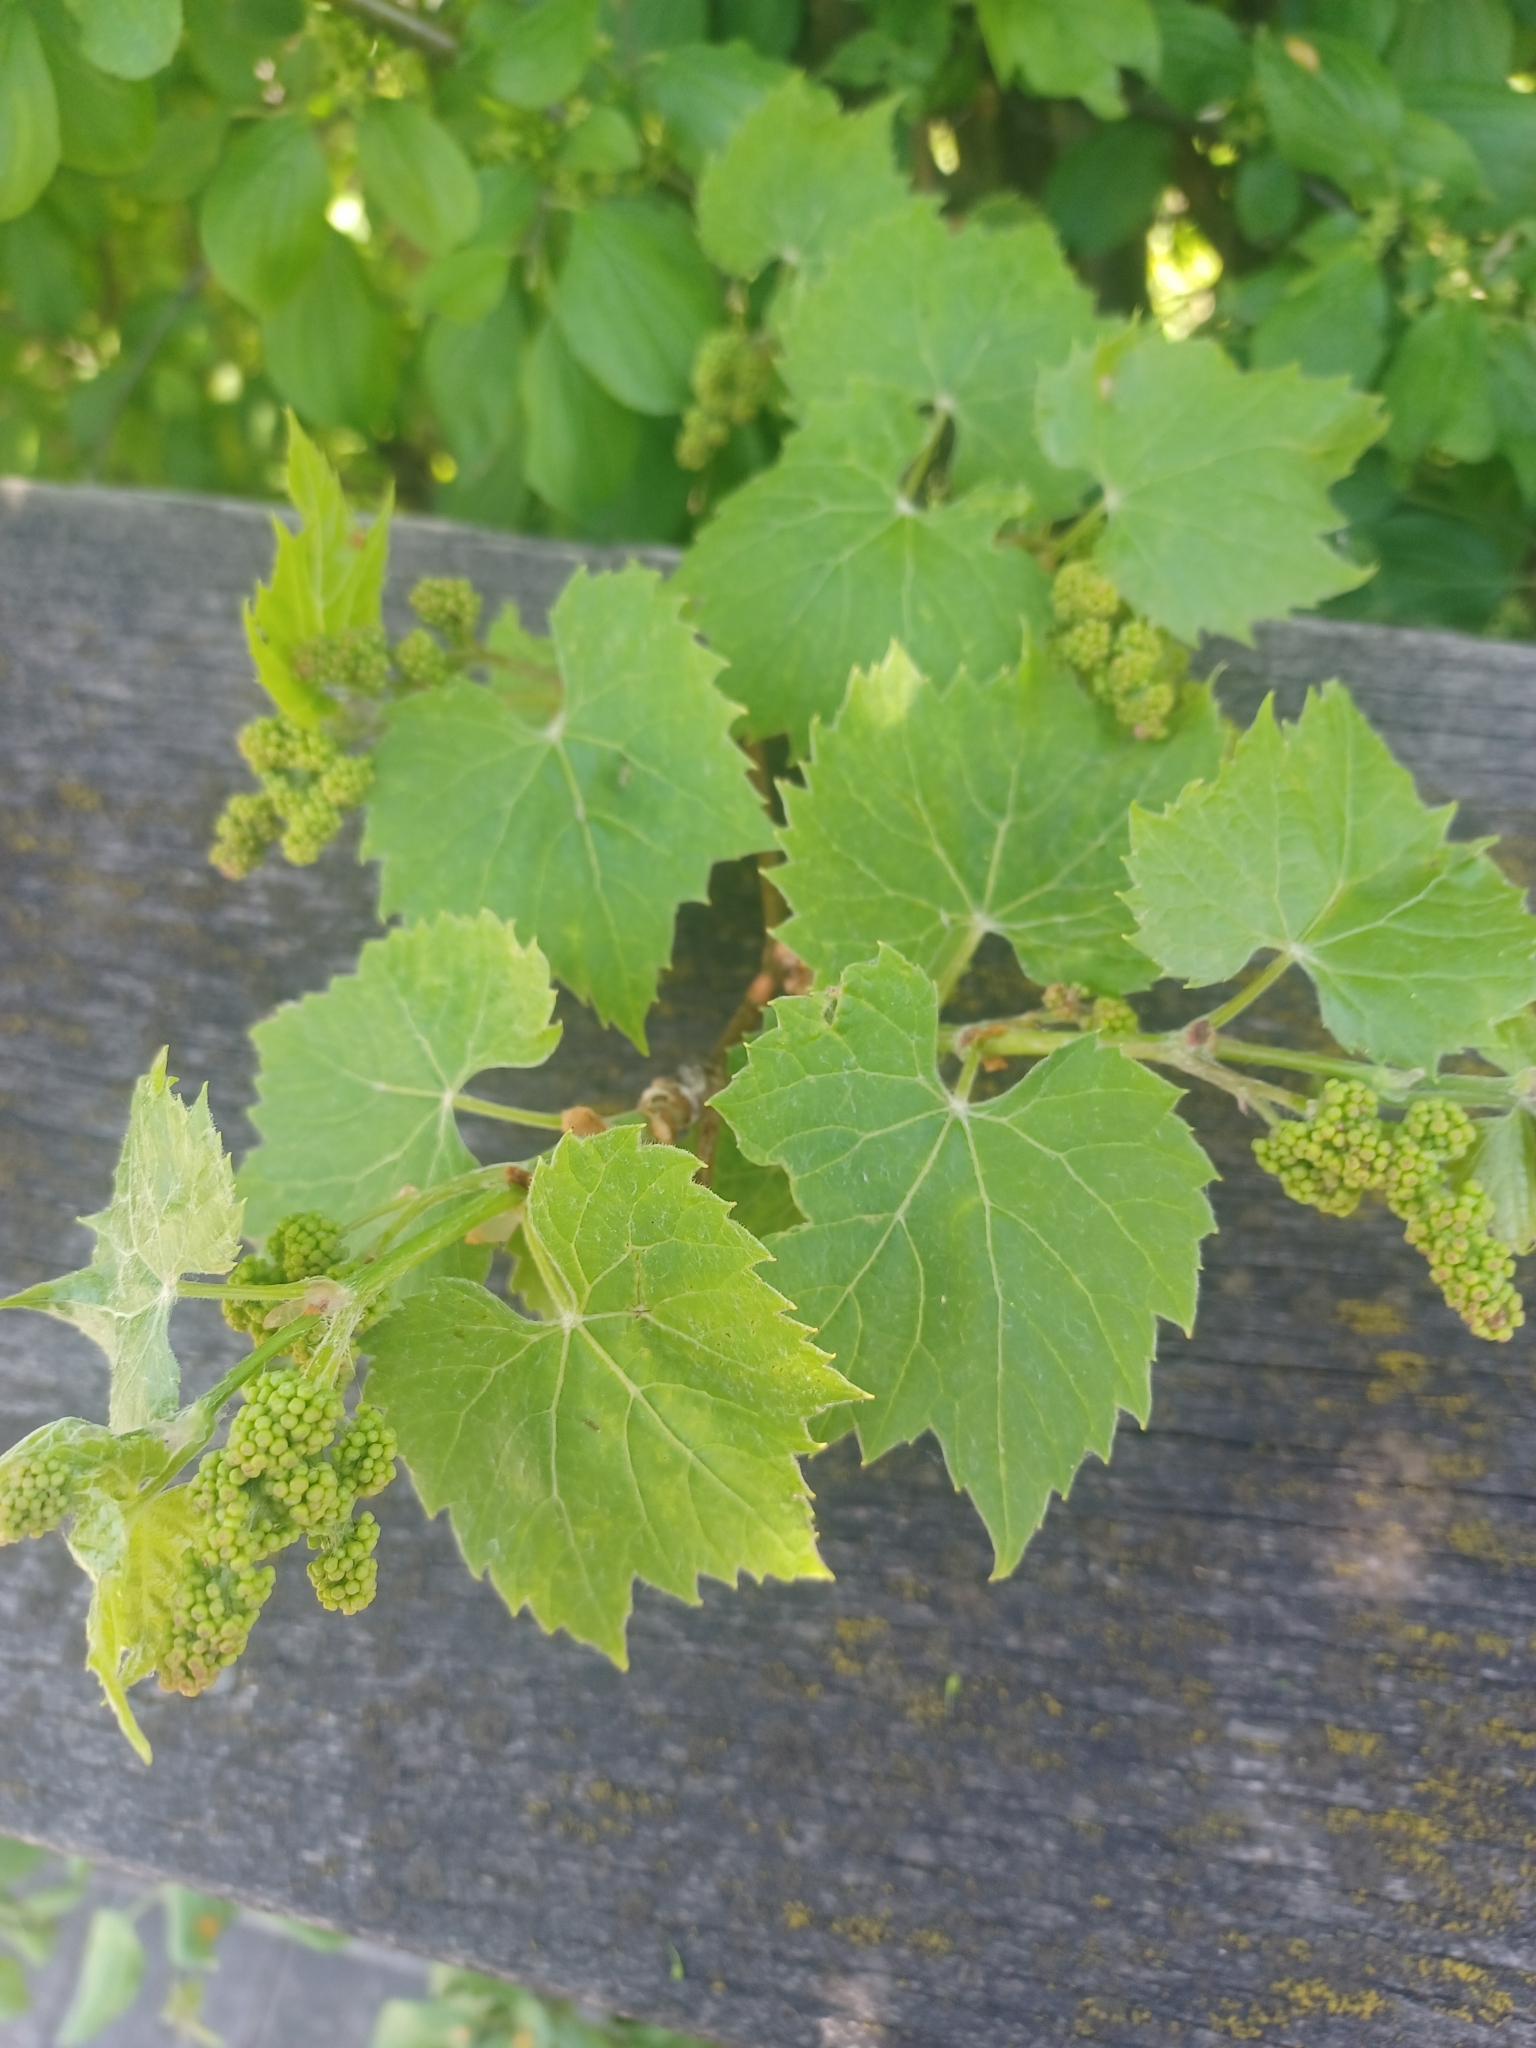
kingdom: Plantae
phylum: Tracheophyta
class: Magnoliopsida
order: Vitales
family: Vitaceae
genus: Vitis
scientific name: Vitis riparia
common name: Frost grape
